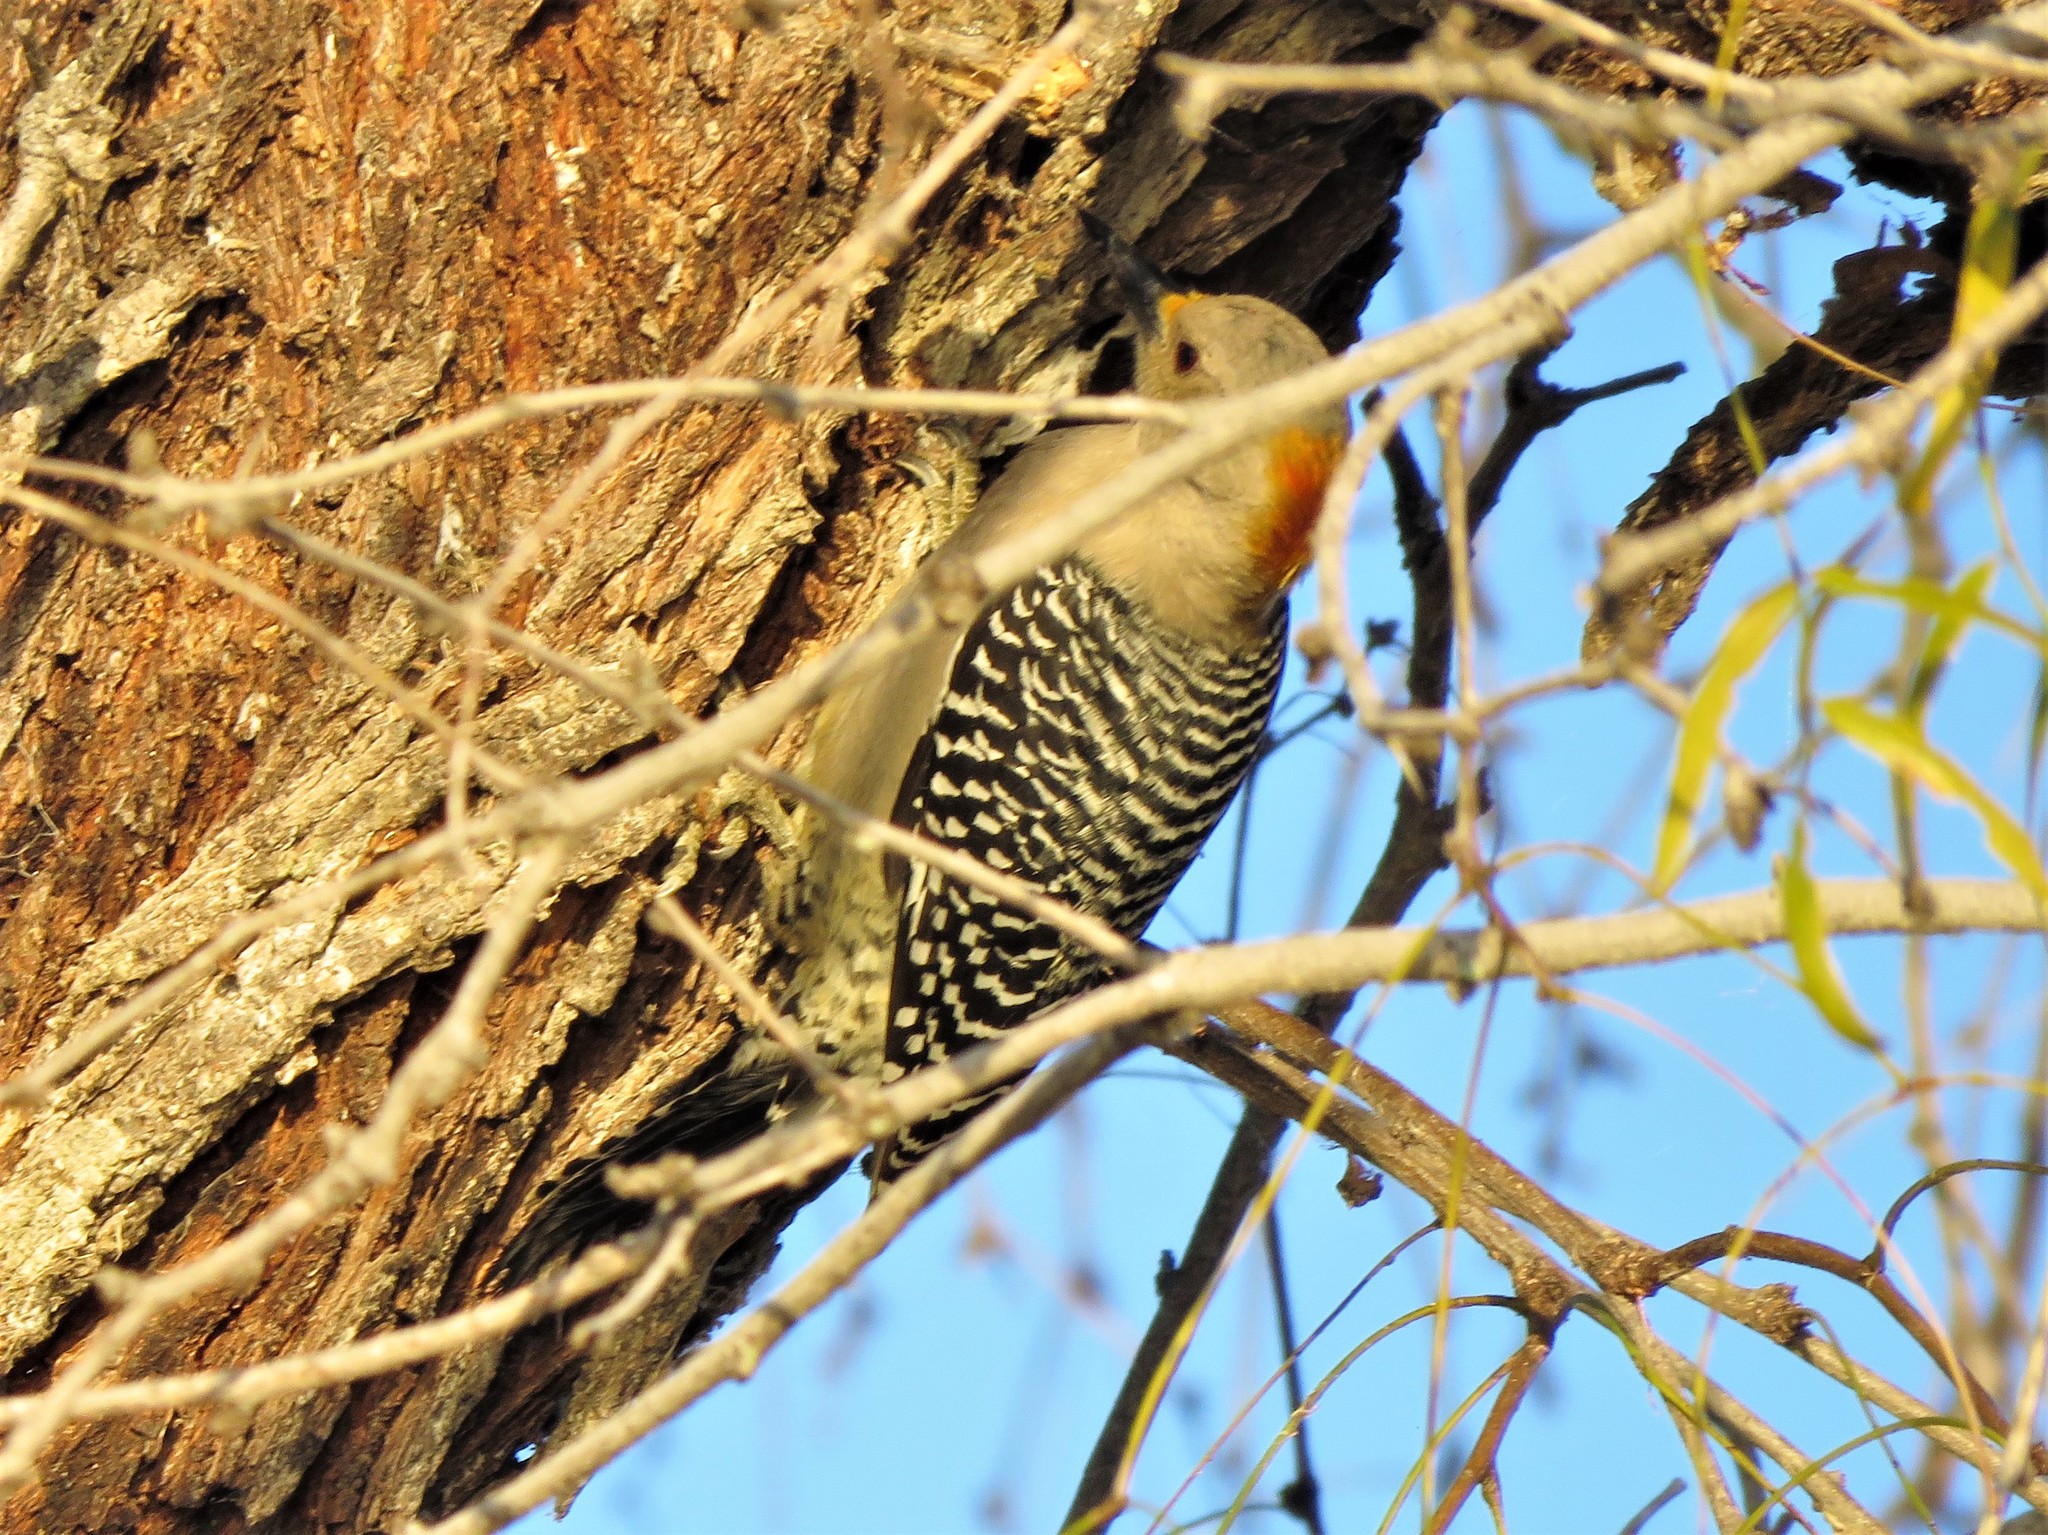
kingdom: Animalia
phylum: Chordata
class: Aves
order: Piciformes
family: Picidae
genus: Melanerpes
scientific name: Melanerpes aurifrons
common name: Golden-fronted woodpecker
